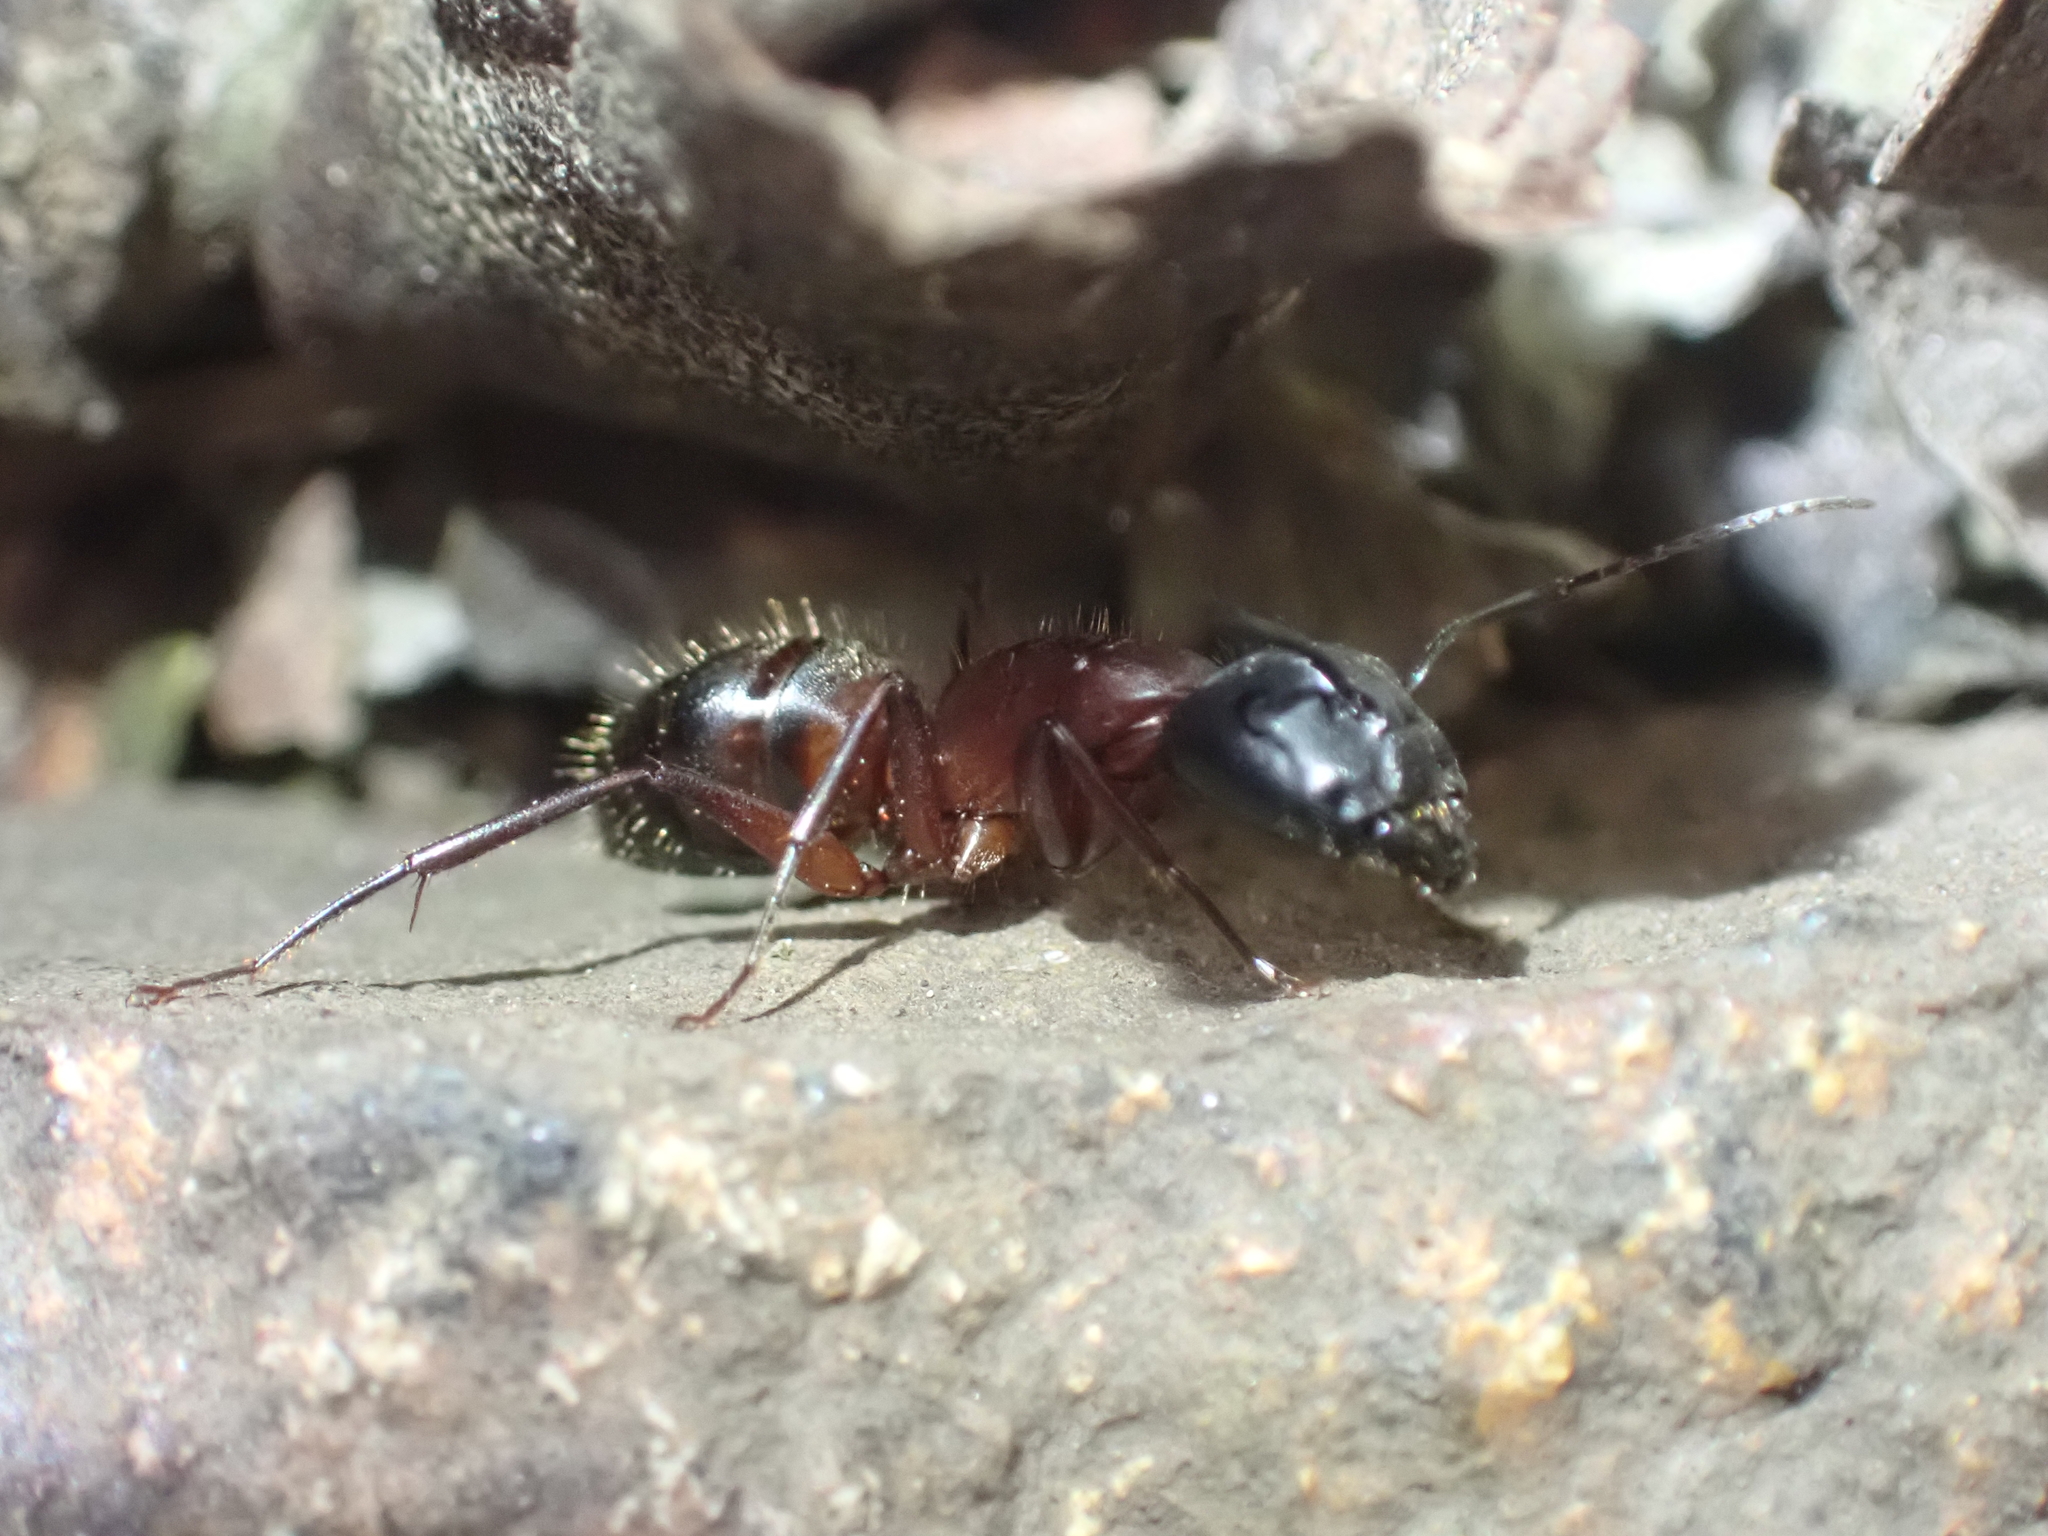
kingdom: Animalia
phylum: Arthropoda
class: Insecta
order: Hymenoptera
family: Formicidae
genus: Camponotus
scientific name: Camponotus vicinus
